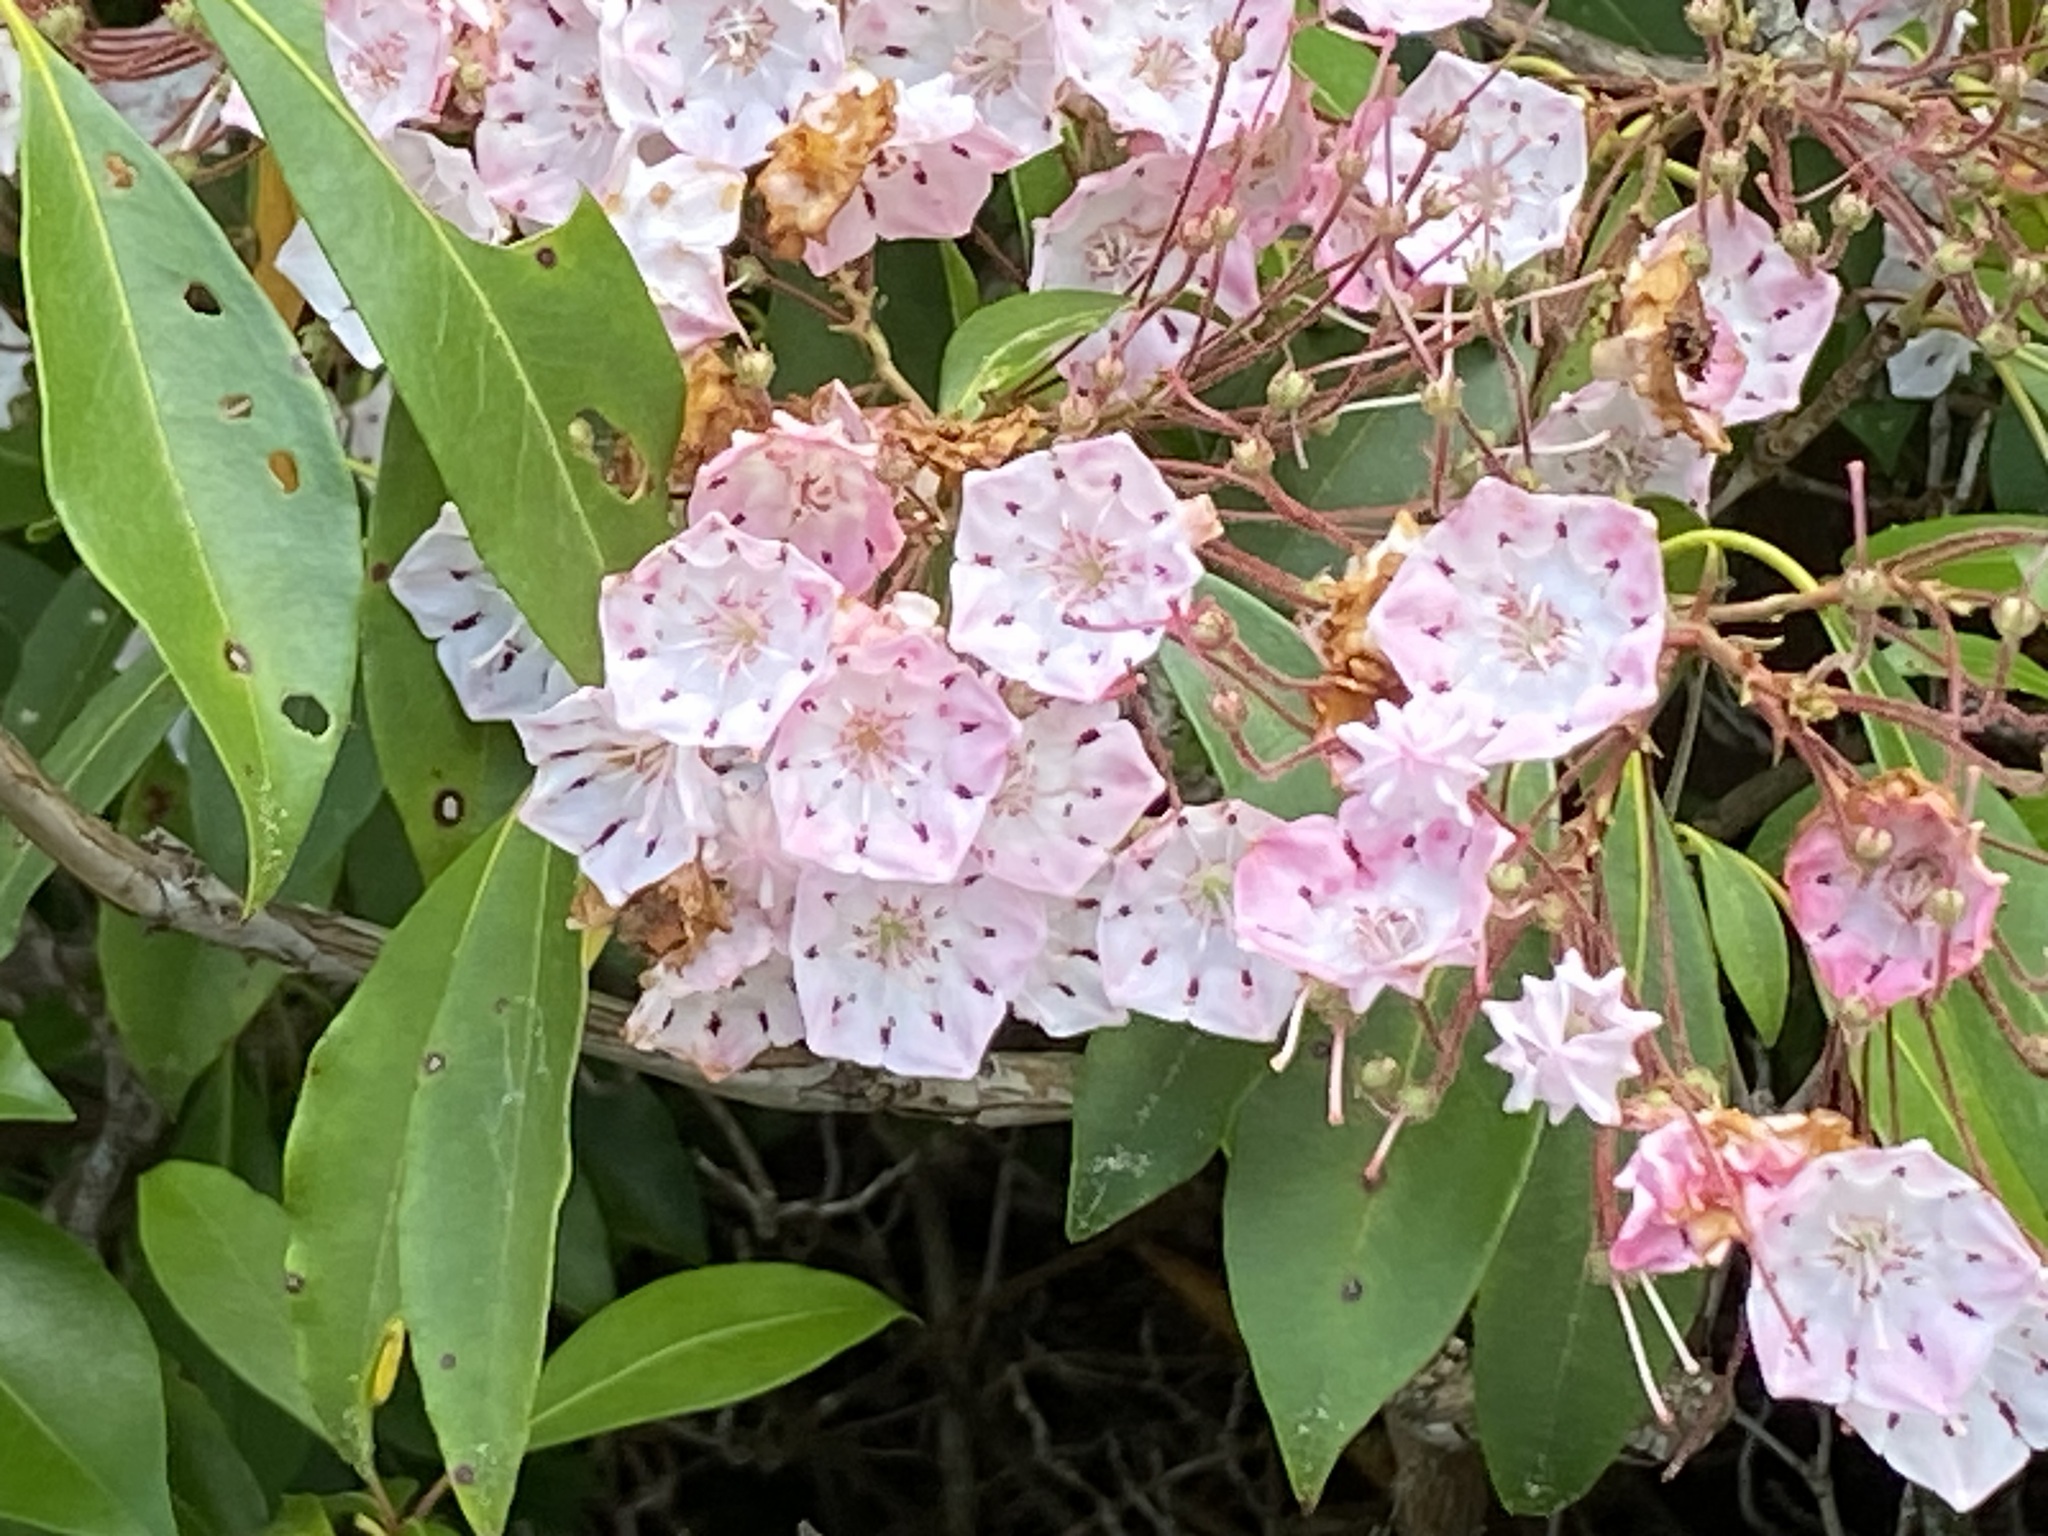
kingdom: Plantae
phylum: Tracheophyta
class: Magnoliopsida
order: Ericales
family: Ericaceae
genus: Kalmia
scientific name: Kalmia latifolia
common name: Mountain-laurel
